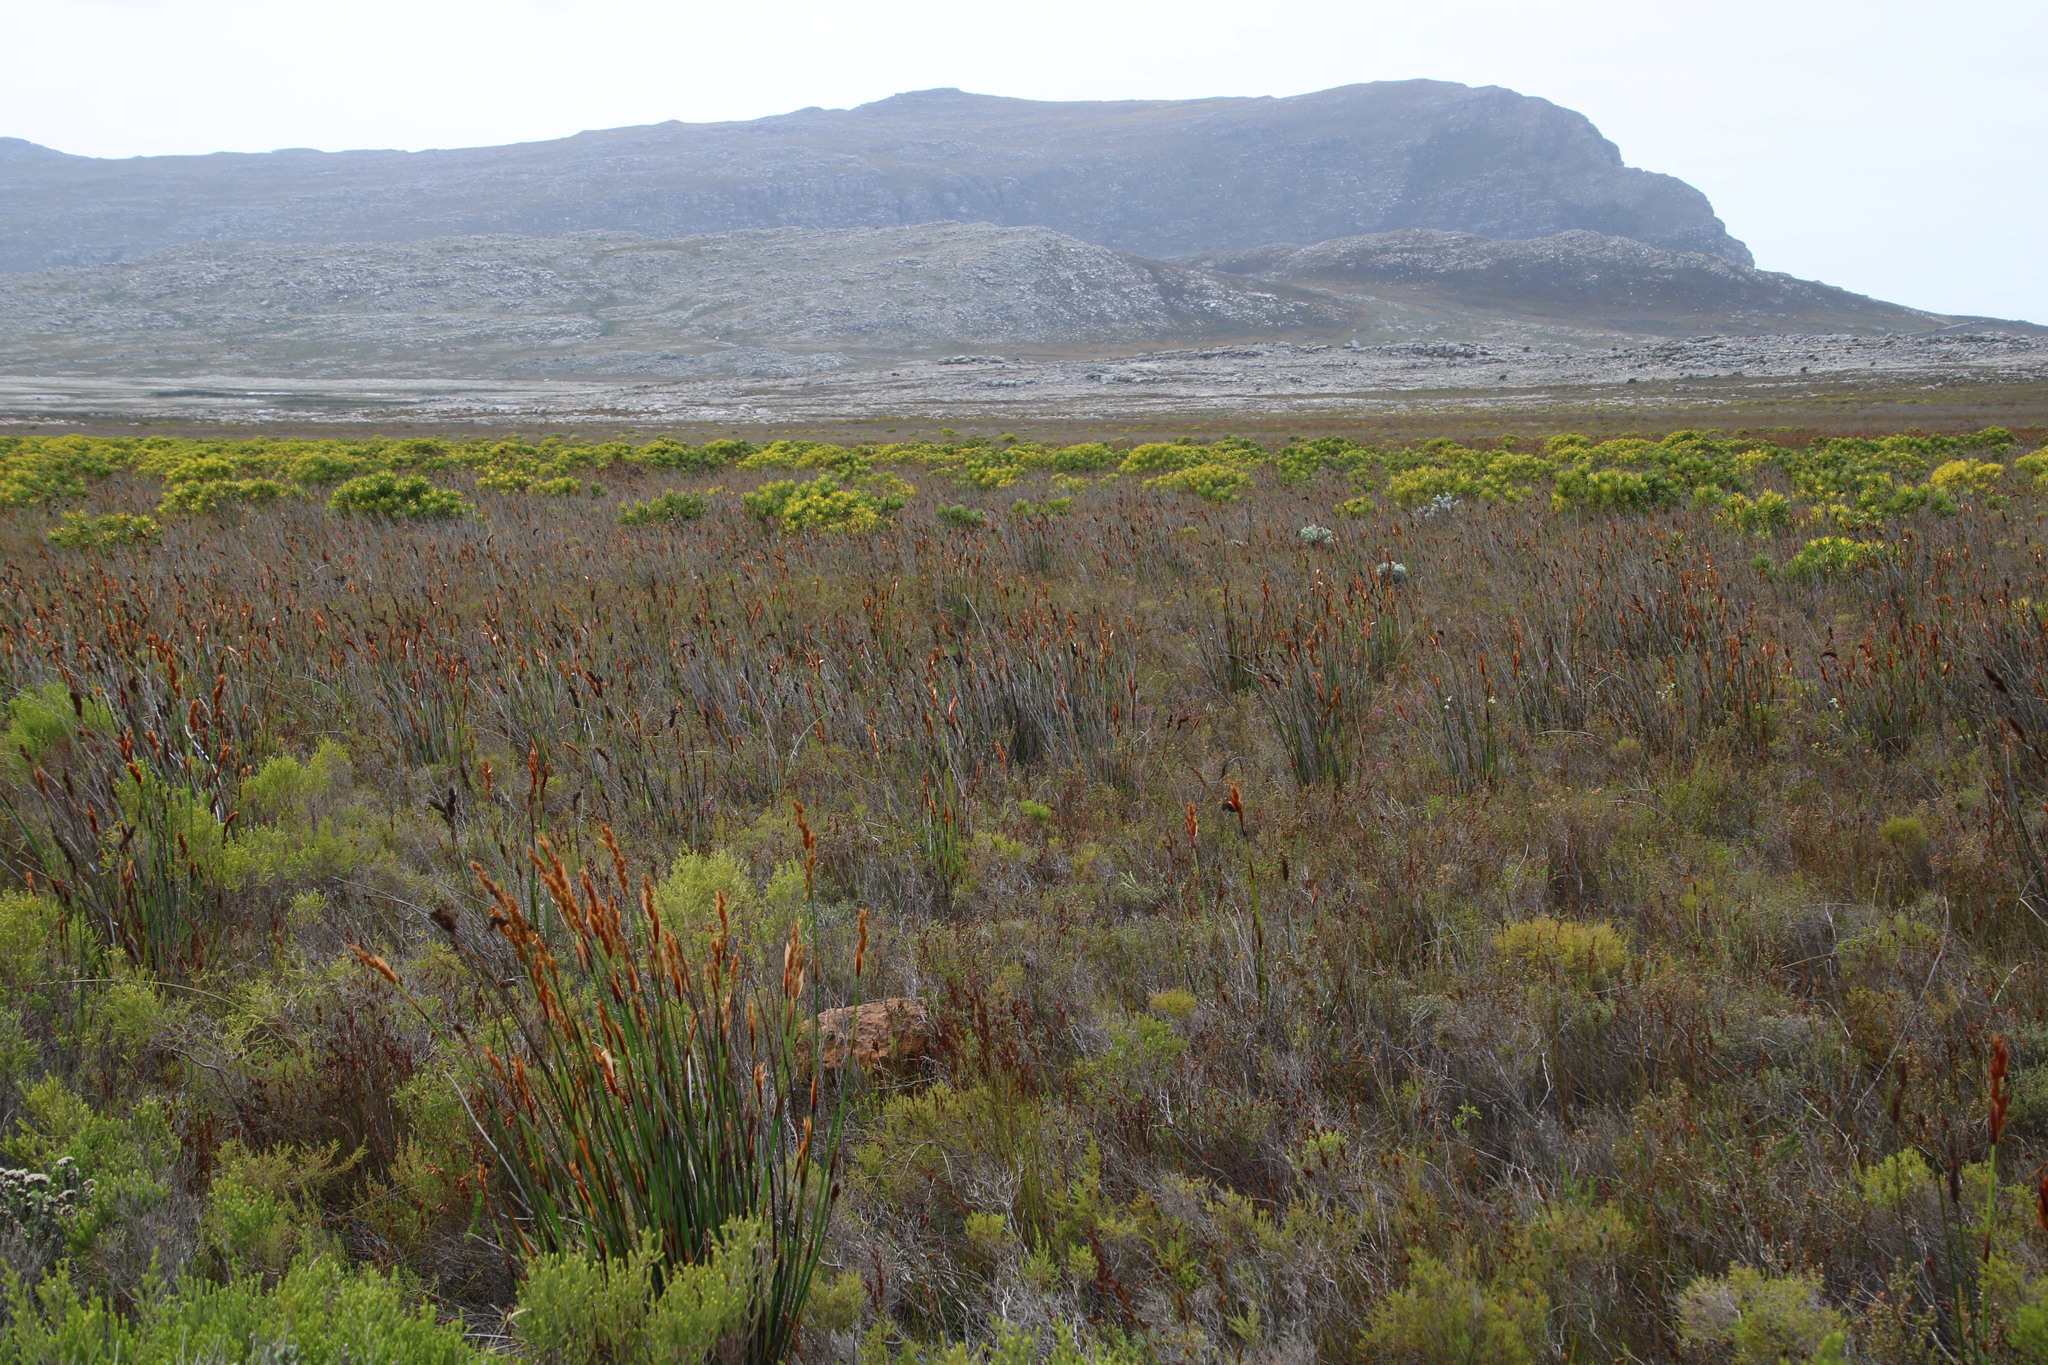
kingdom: Plantae
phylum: Tracheophyta
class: Liliopsida
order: Poales
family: Restionaceae
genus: Elegia
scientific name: Elegia cuspidata
